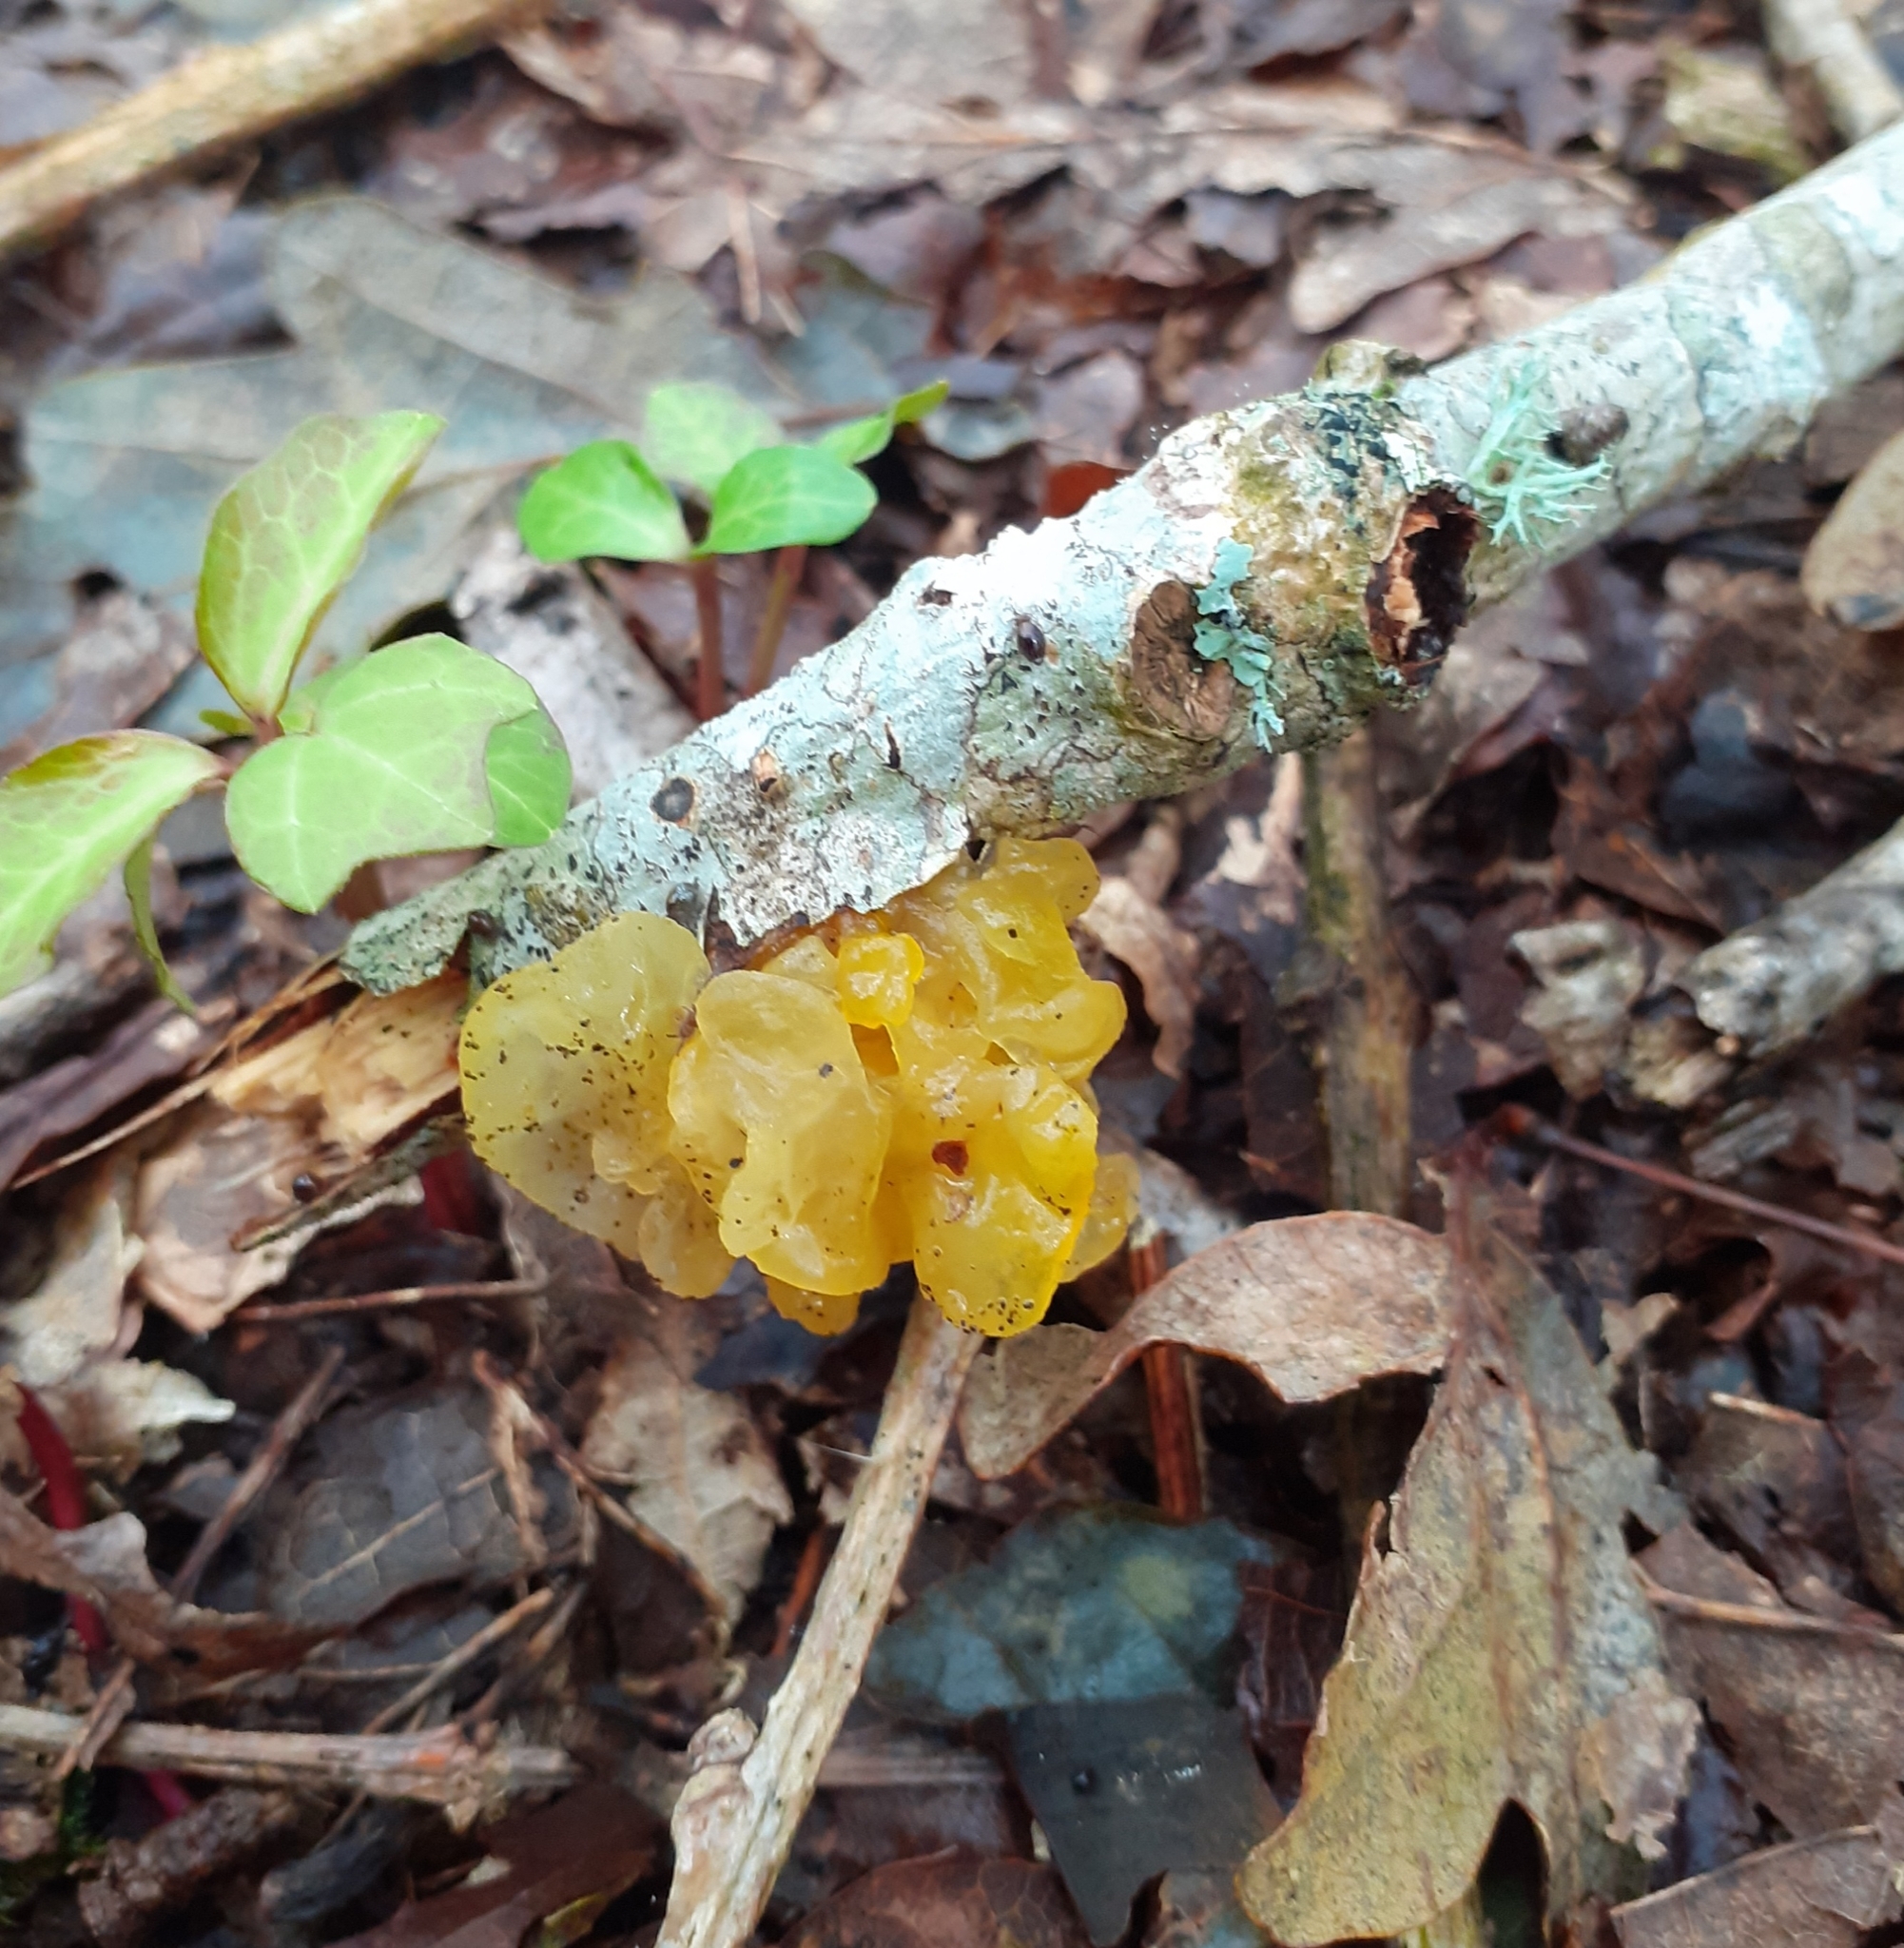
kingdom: Fungi
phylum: Basidiomycota
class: Tremellomycetes
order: Tremellales
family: Tremellaceae
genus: Tremella
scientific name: Tremella mesenterica
